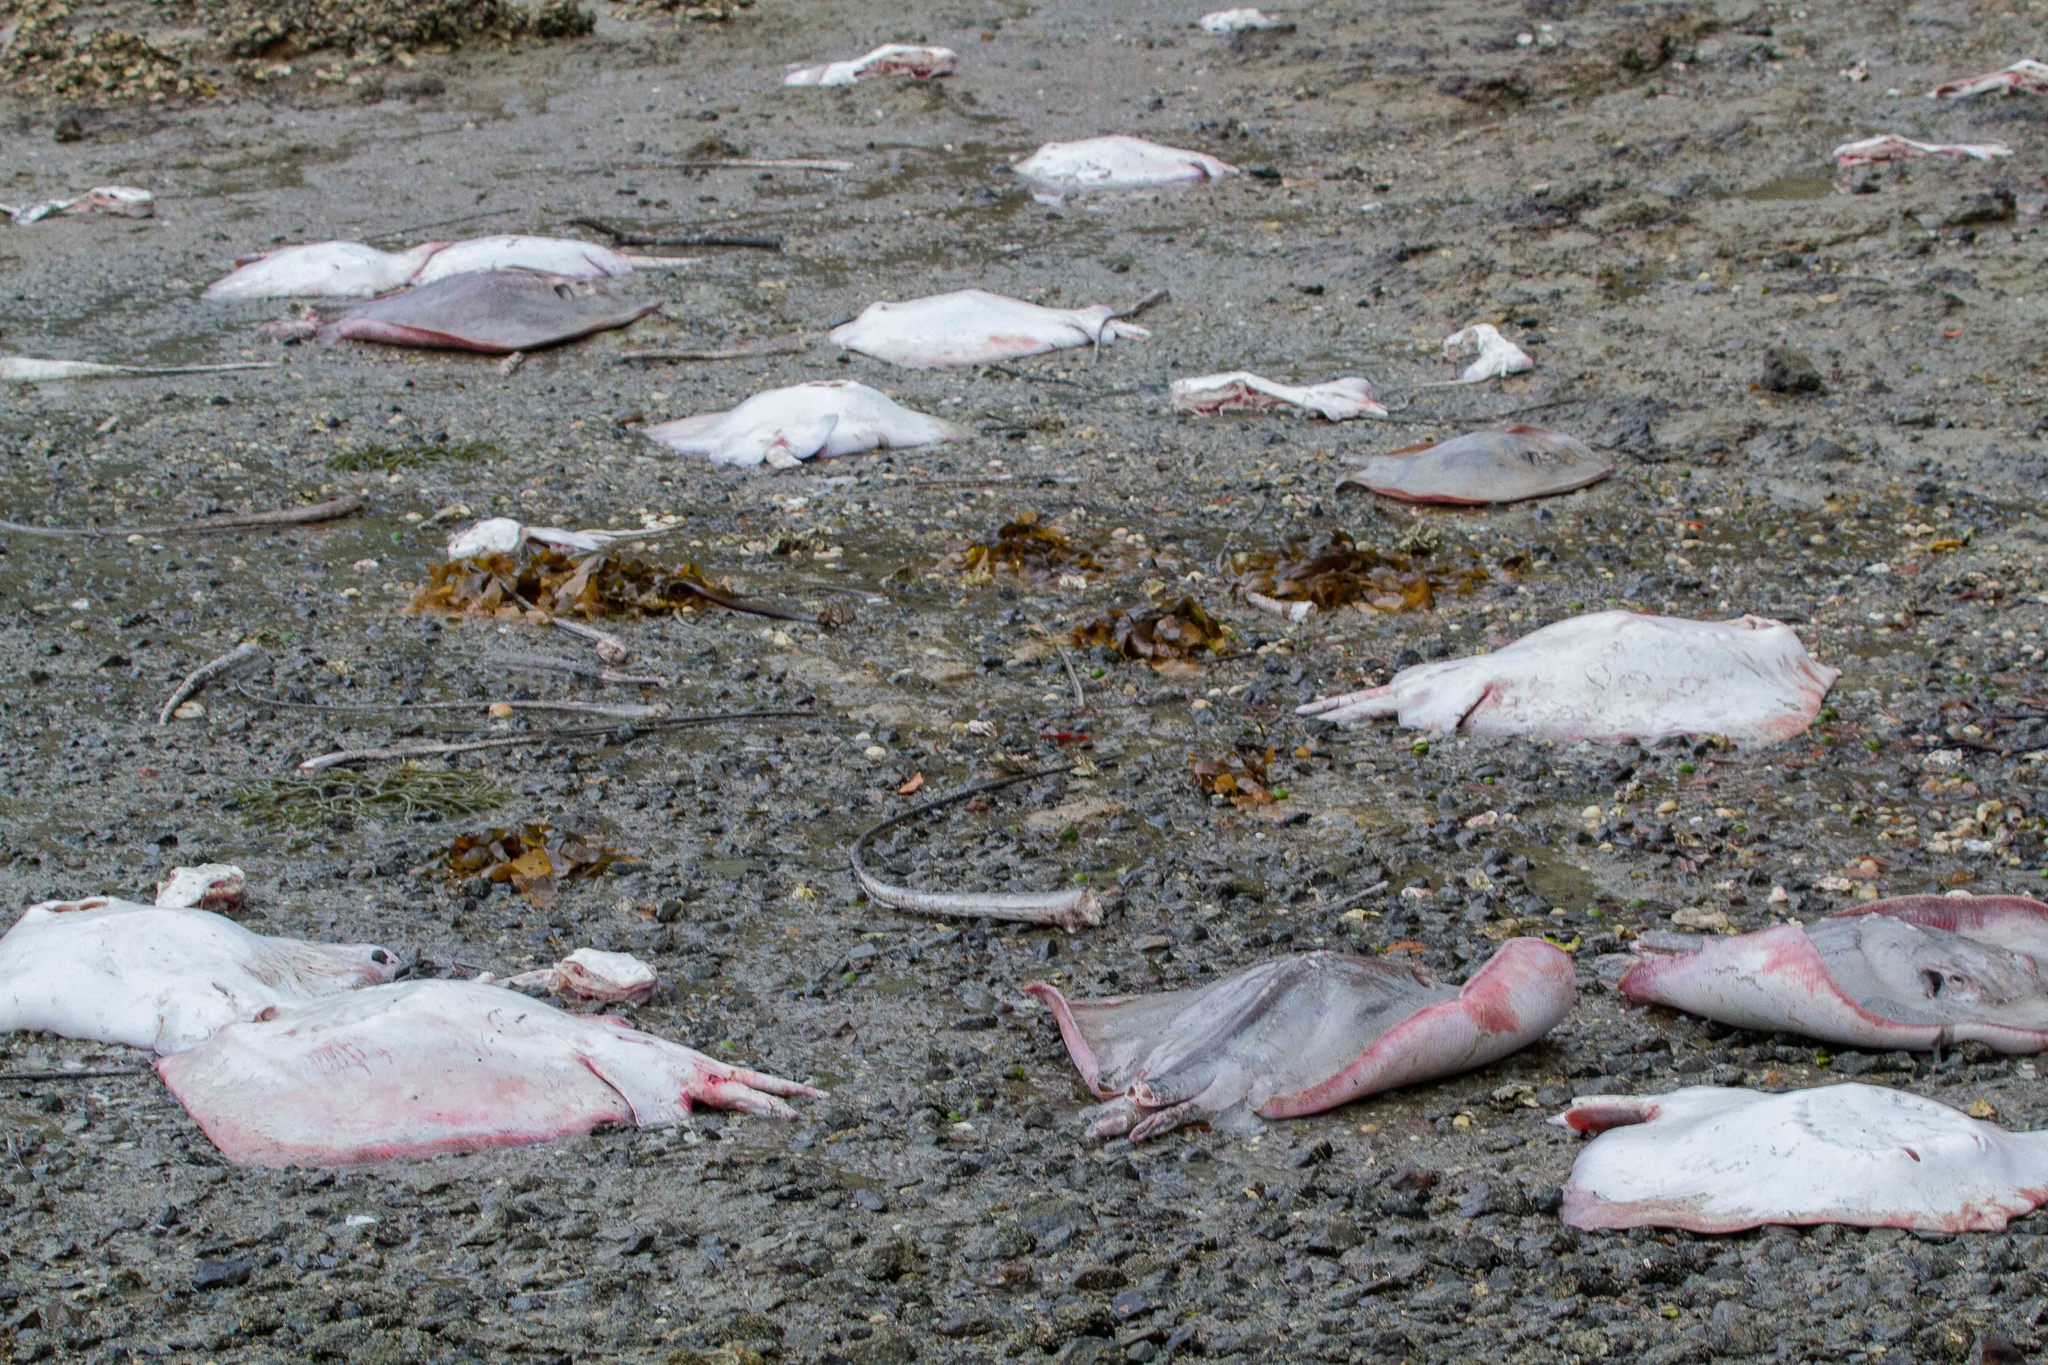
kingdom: Animalia
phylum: Chordata
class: Elasmobranchii
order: Myliobatiformes
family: Dasyatidae
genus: Bathytoshia
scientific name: Bathytoshia lata
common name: Brown stingray
